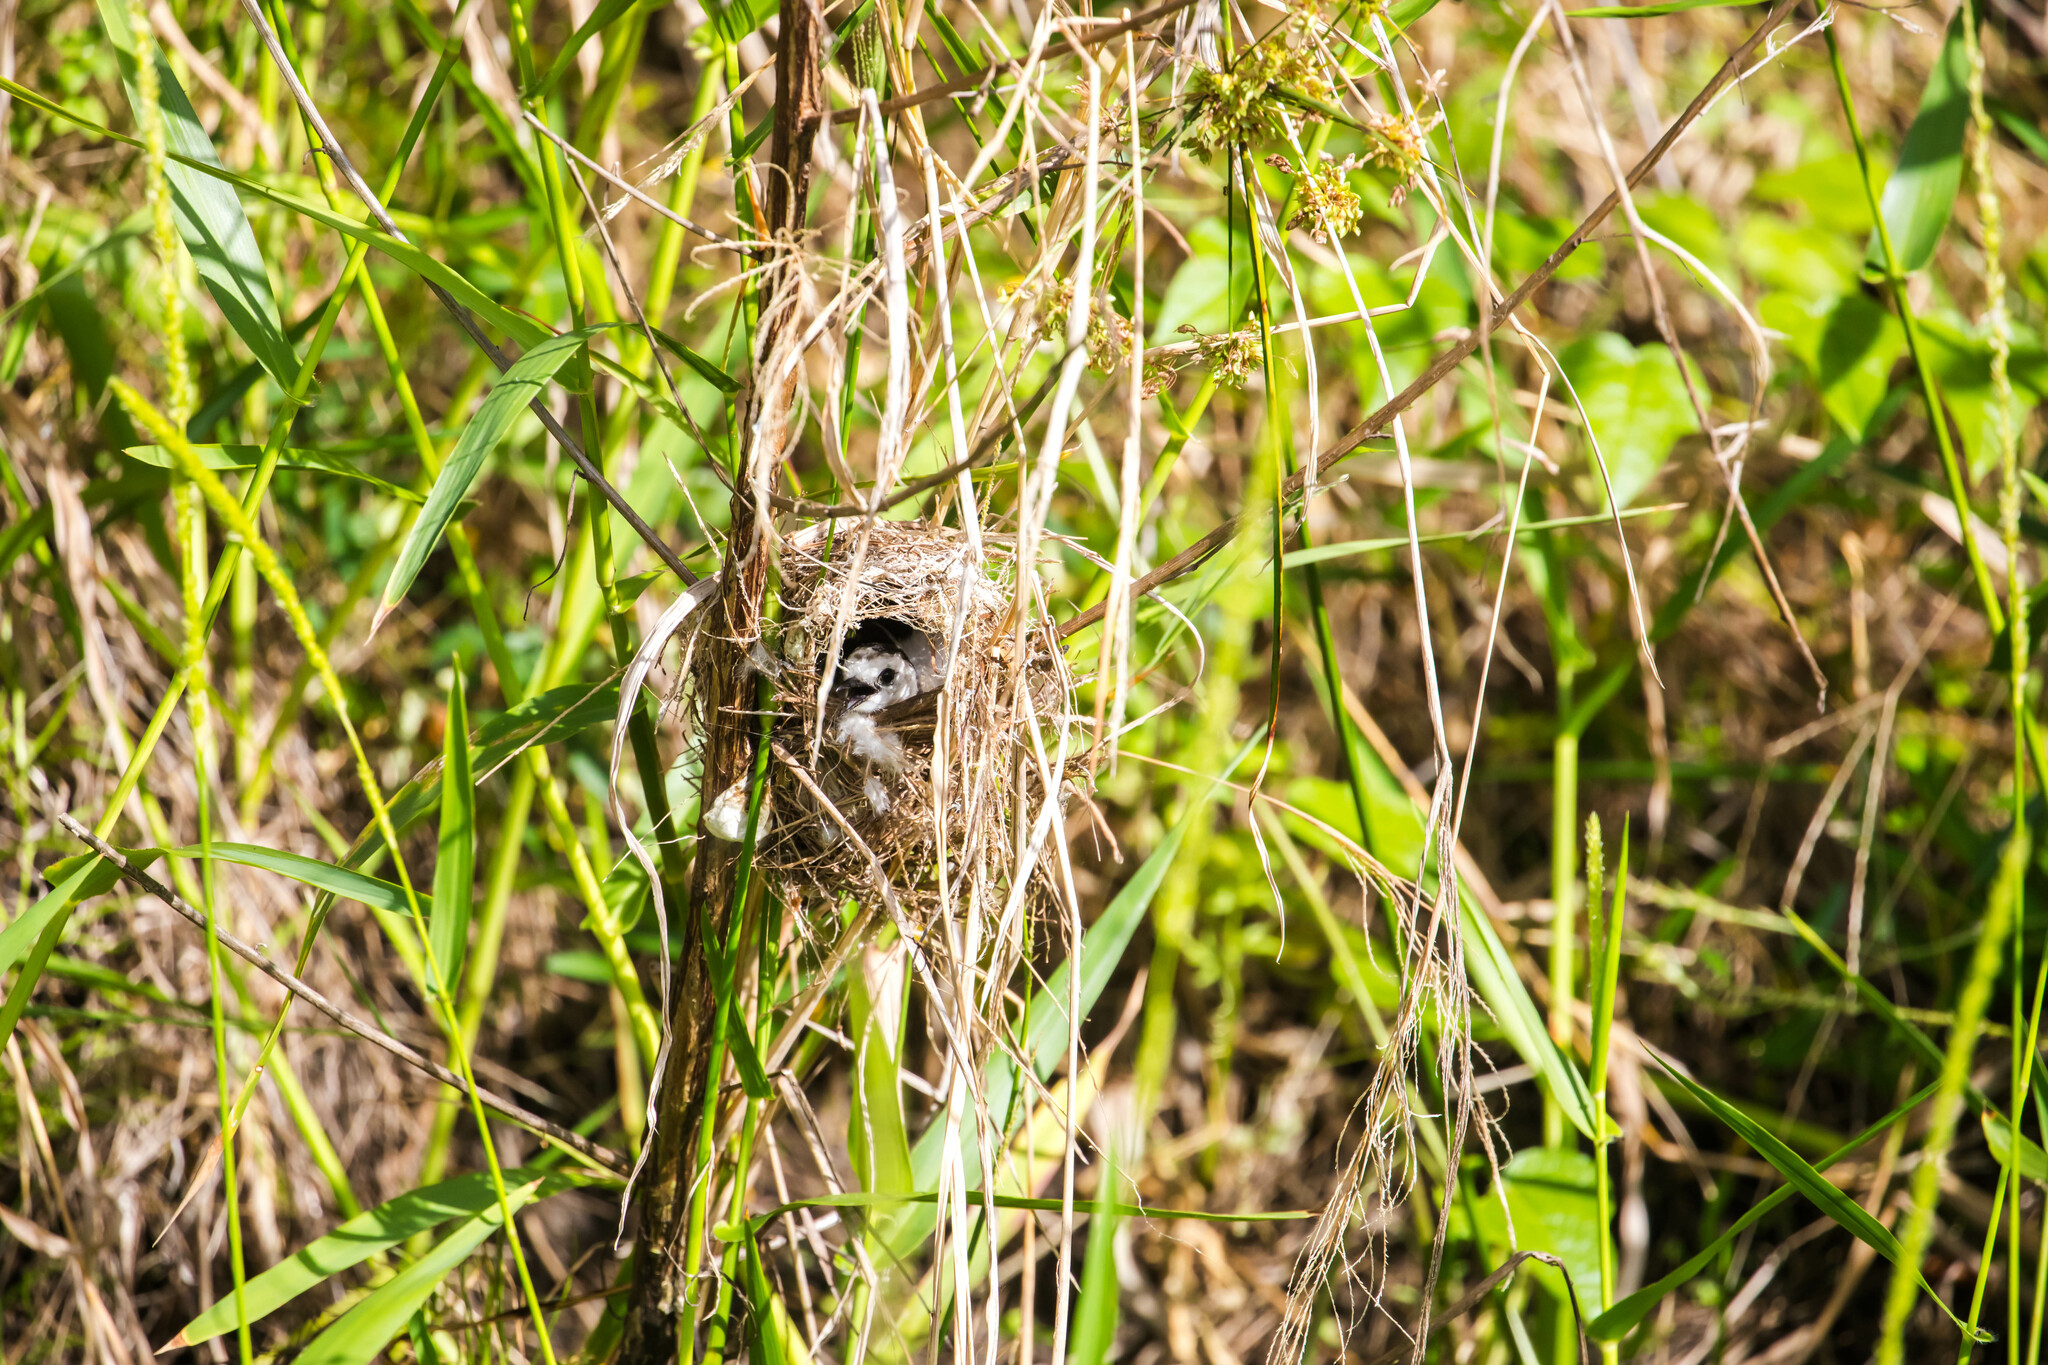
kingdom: Animalia
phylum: Chordata
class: Aves
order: Passeriformes
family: Tyrannidae
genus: Fluvicola
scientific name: Fluvicola pica
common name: Pied water-tyrant
